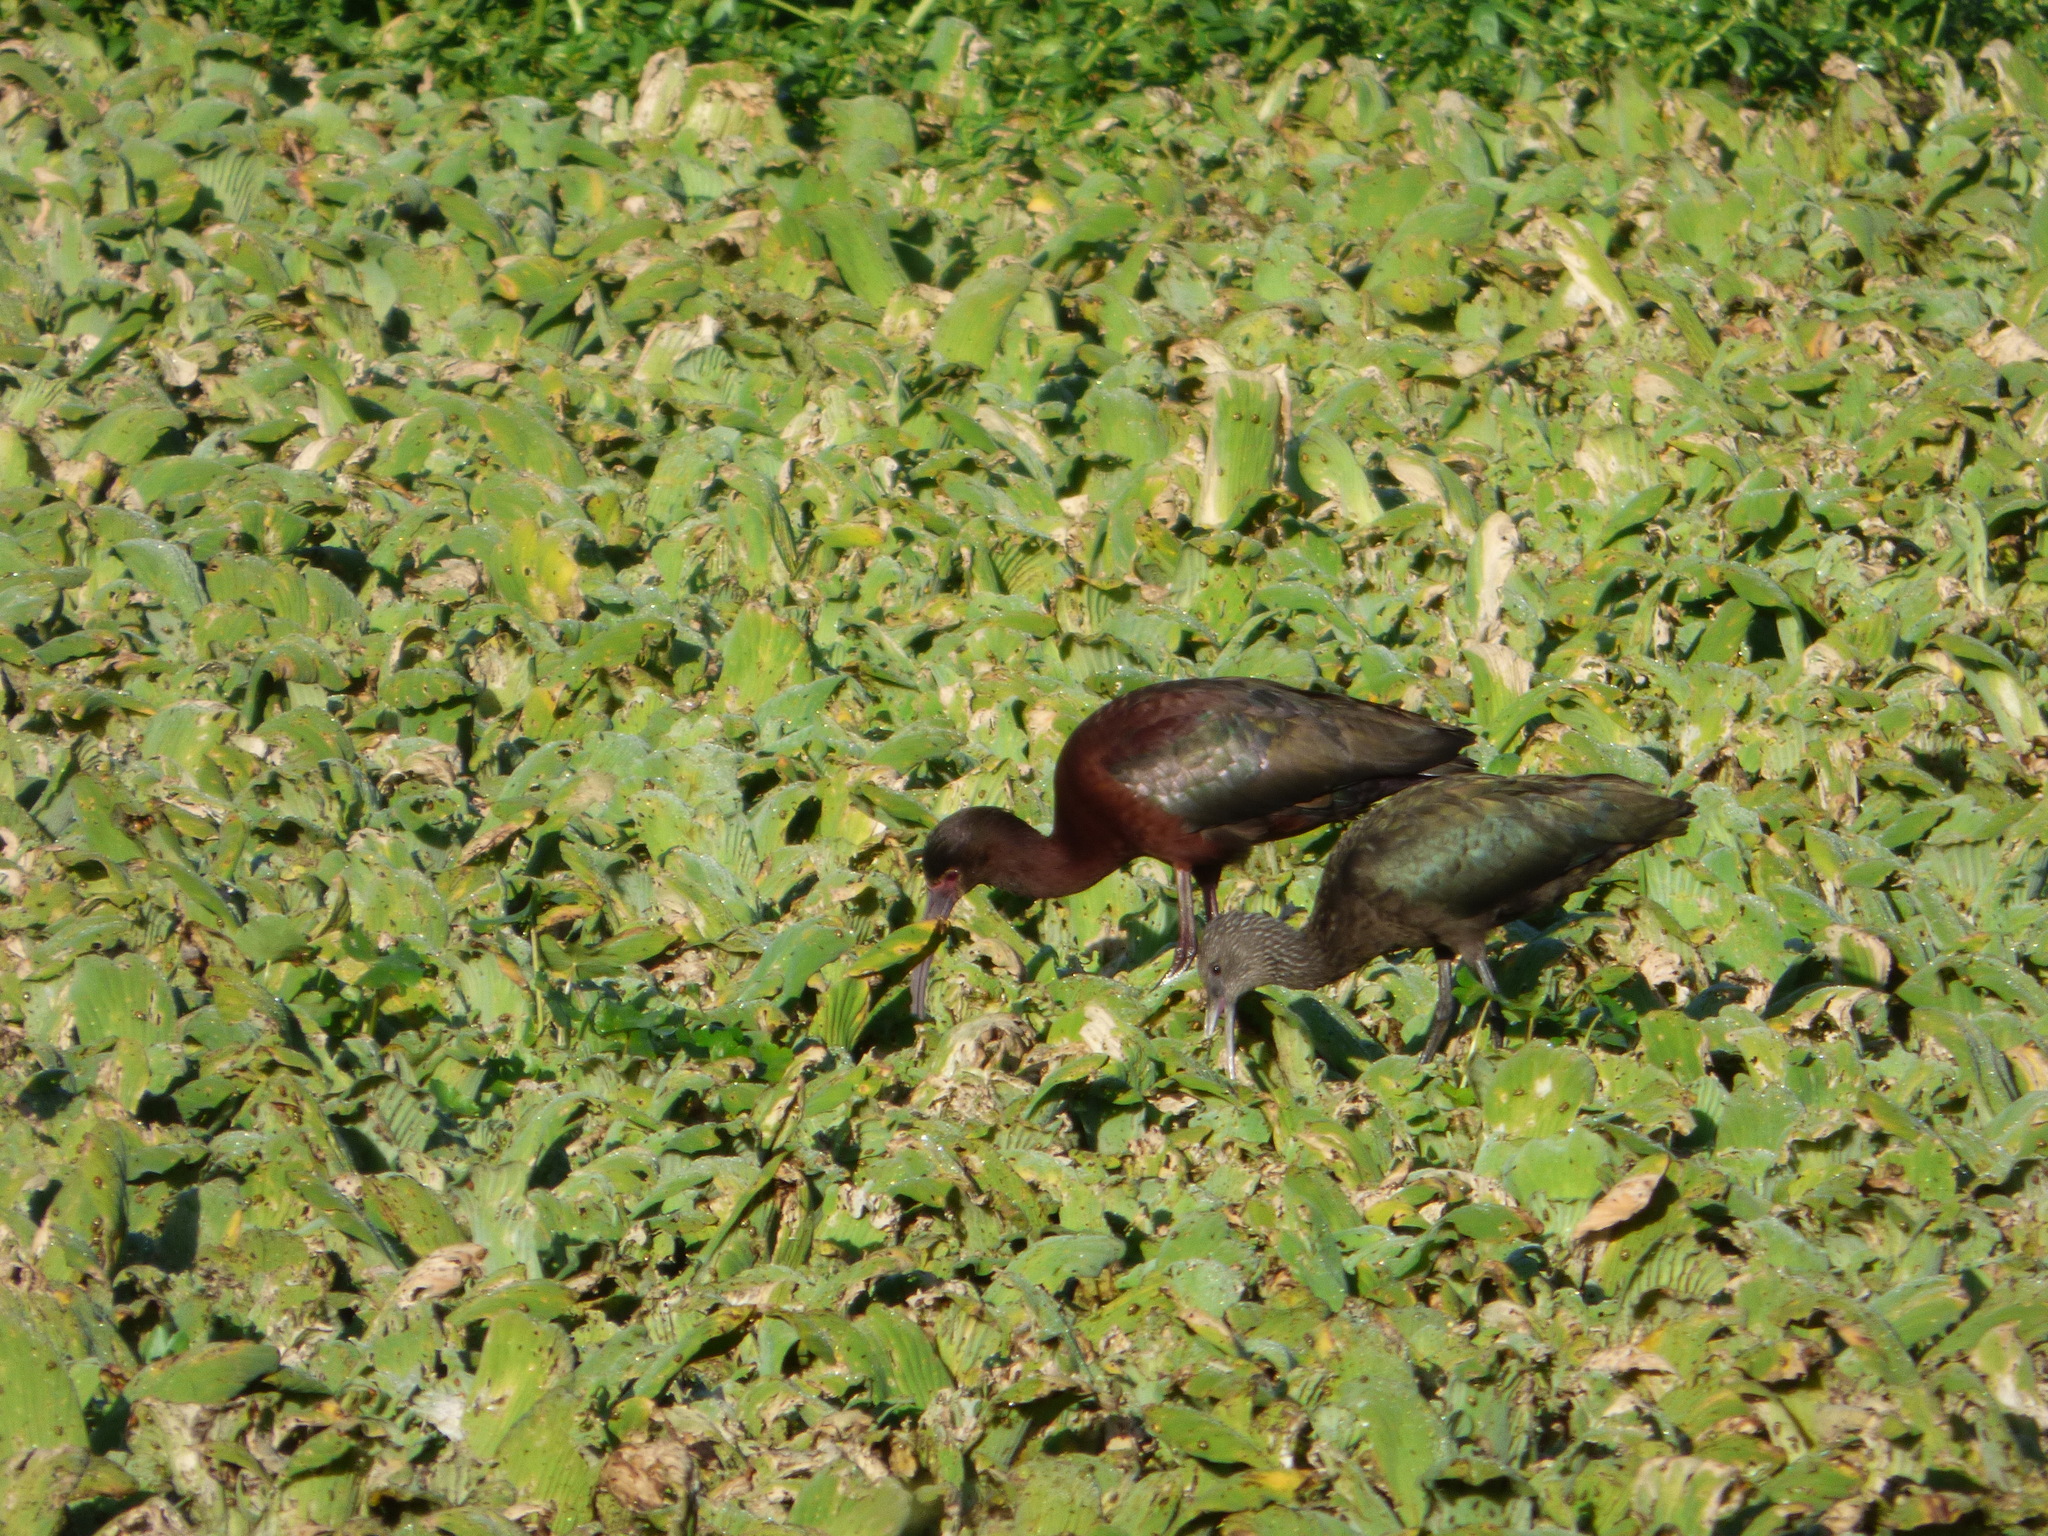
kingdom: Animalia
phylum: Chordata
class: Aves
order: Pelecaniformes
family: Threskiornithidae
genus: Plegadis
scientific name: Plegadis chihi
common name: White-faced ibis
